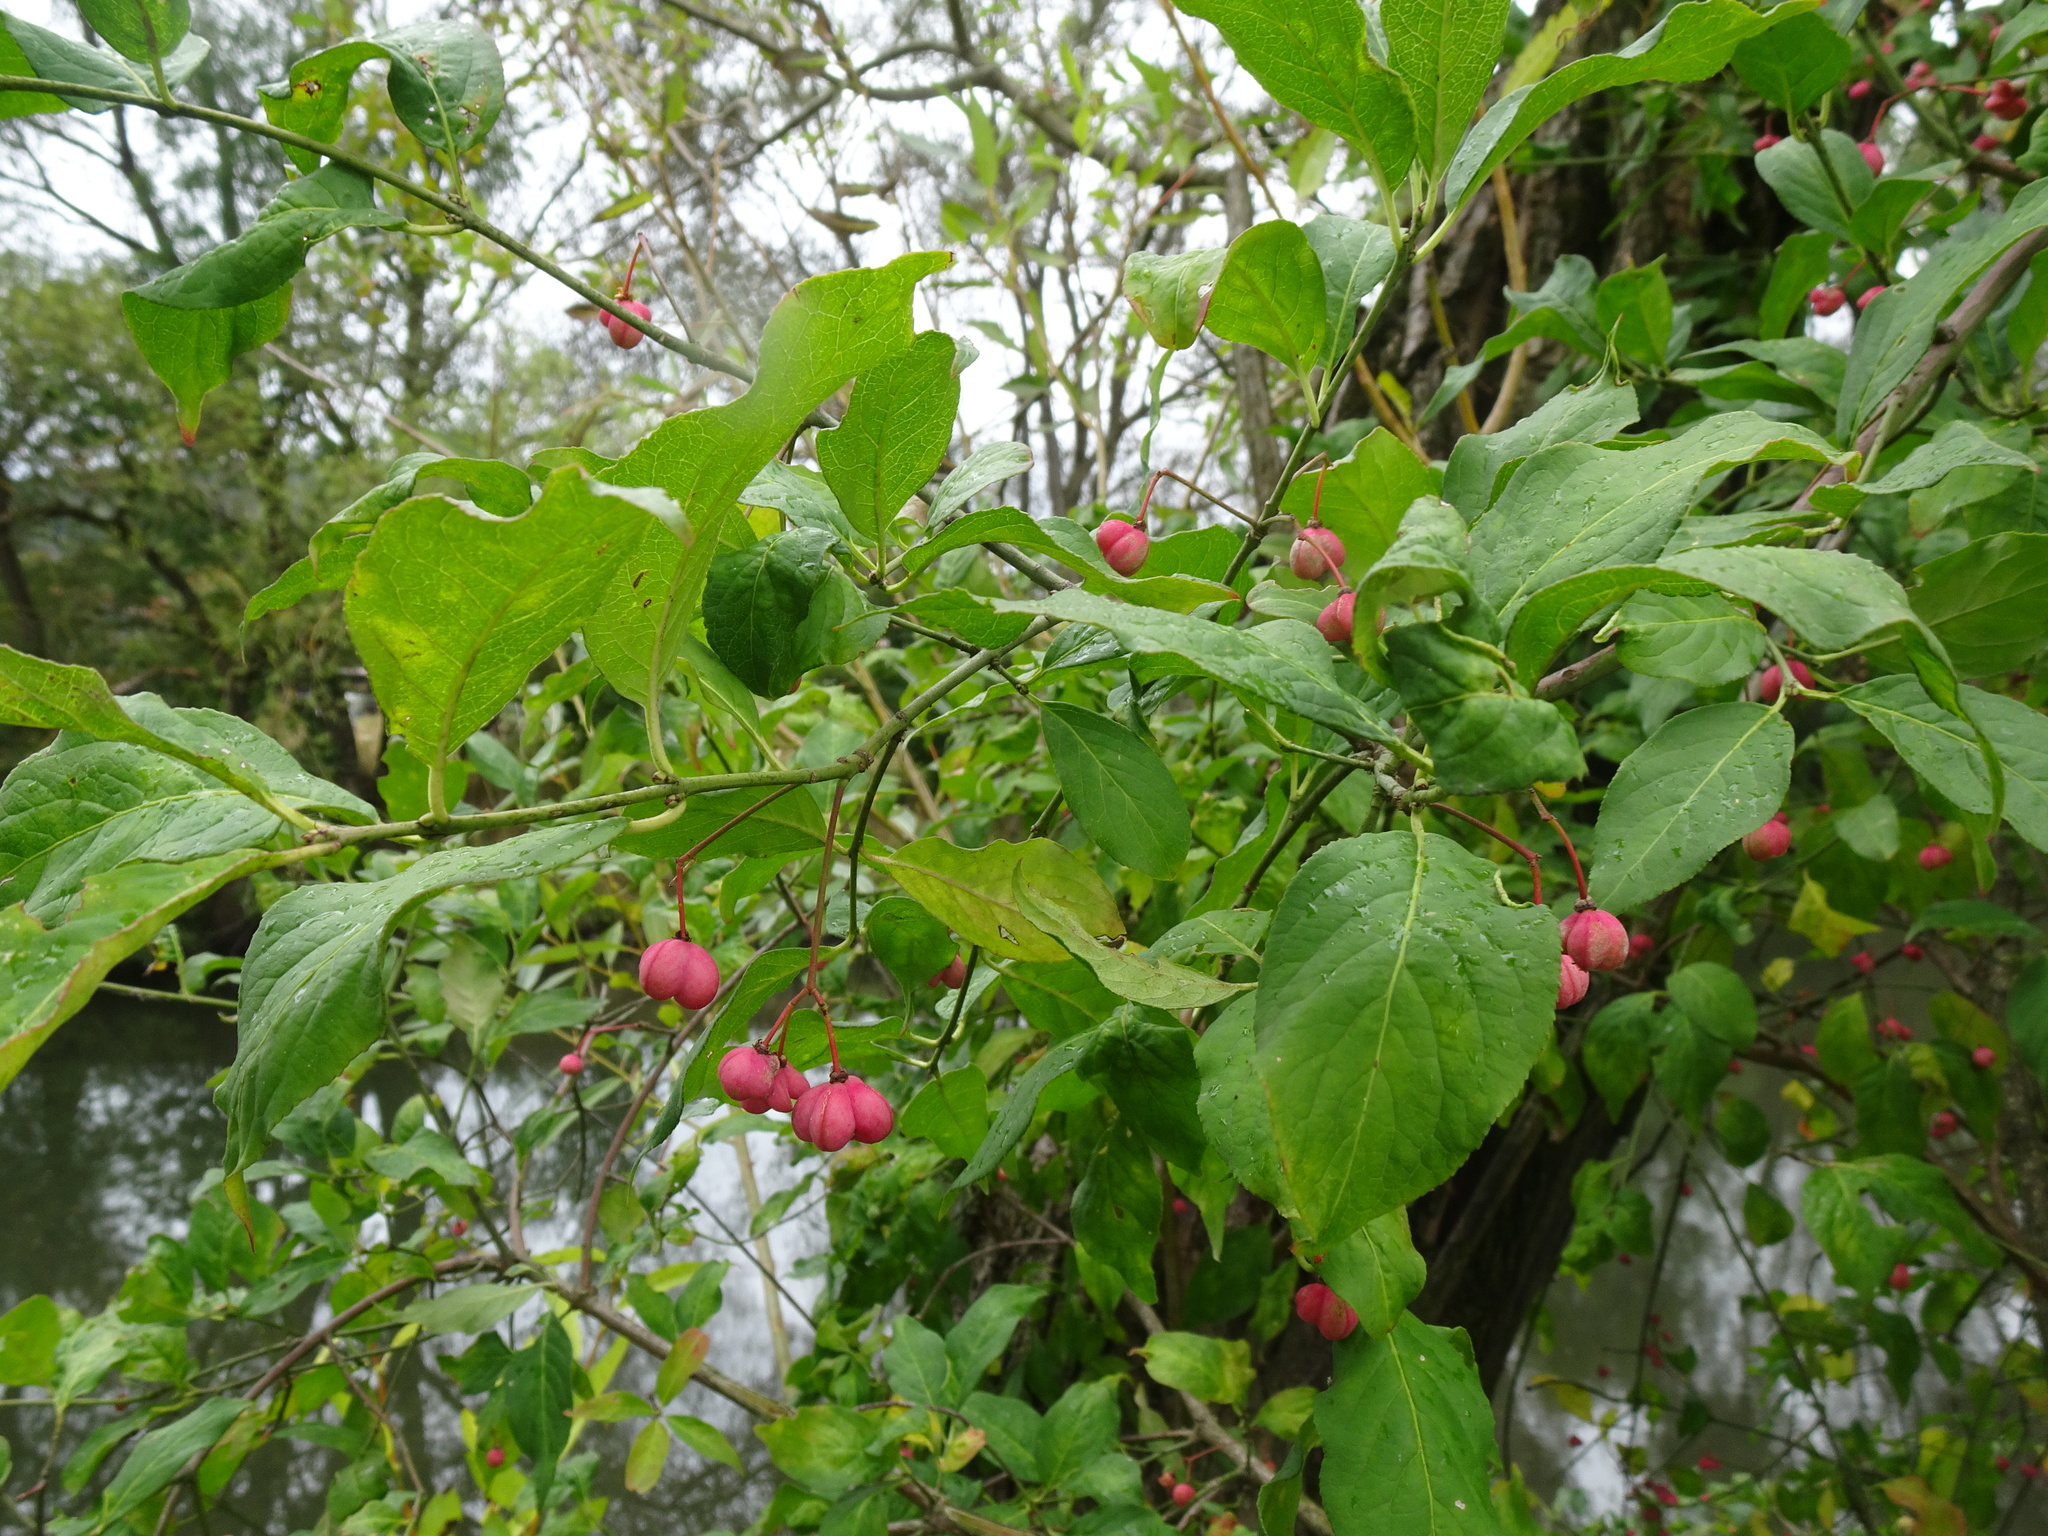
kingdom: Plantae
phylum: Tracheophyta
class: Magnoliopsida
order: Celastrales
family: Celastraceae
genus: Euonymus
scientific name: Euonymus europaeus
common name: Spindle
